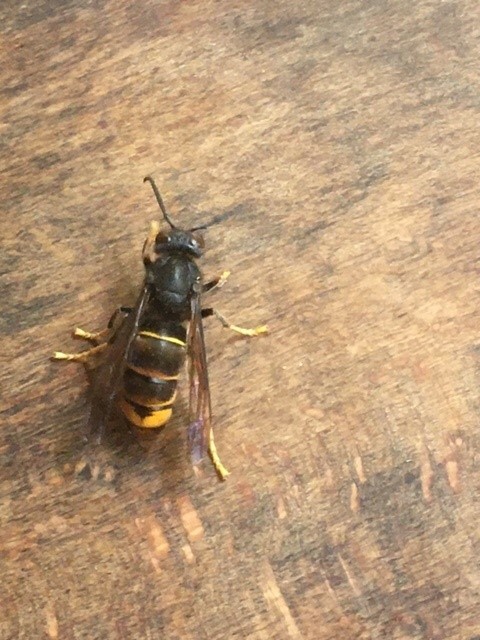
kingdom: Animalia
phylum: Arthropoda
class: Insecta
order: Hymenoptera
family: Vespidae
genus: Vespa
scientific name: Vespa velutina
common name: Asian hornet
